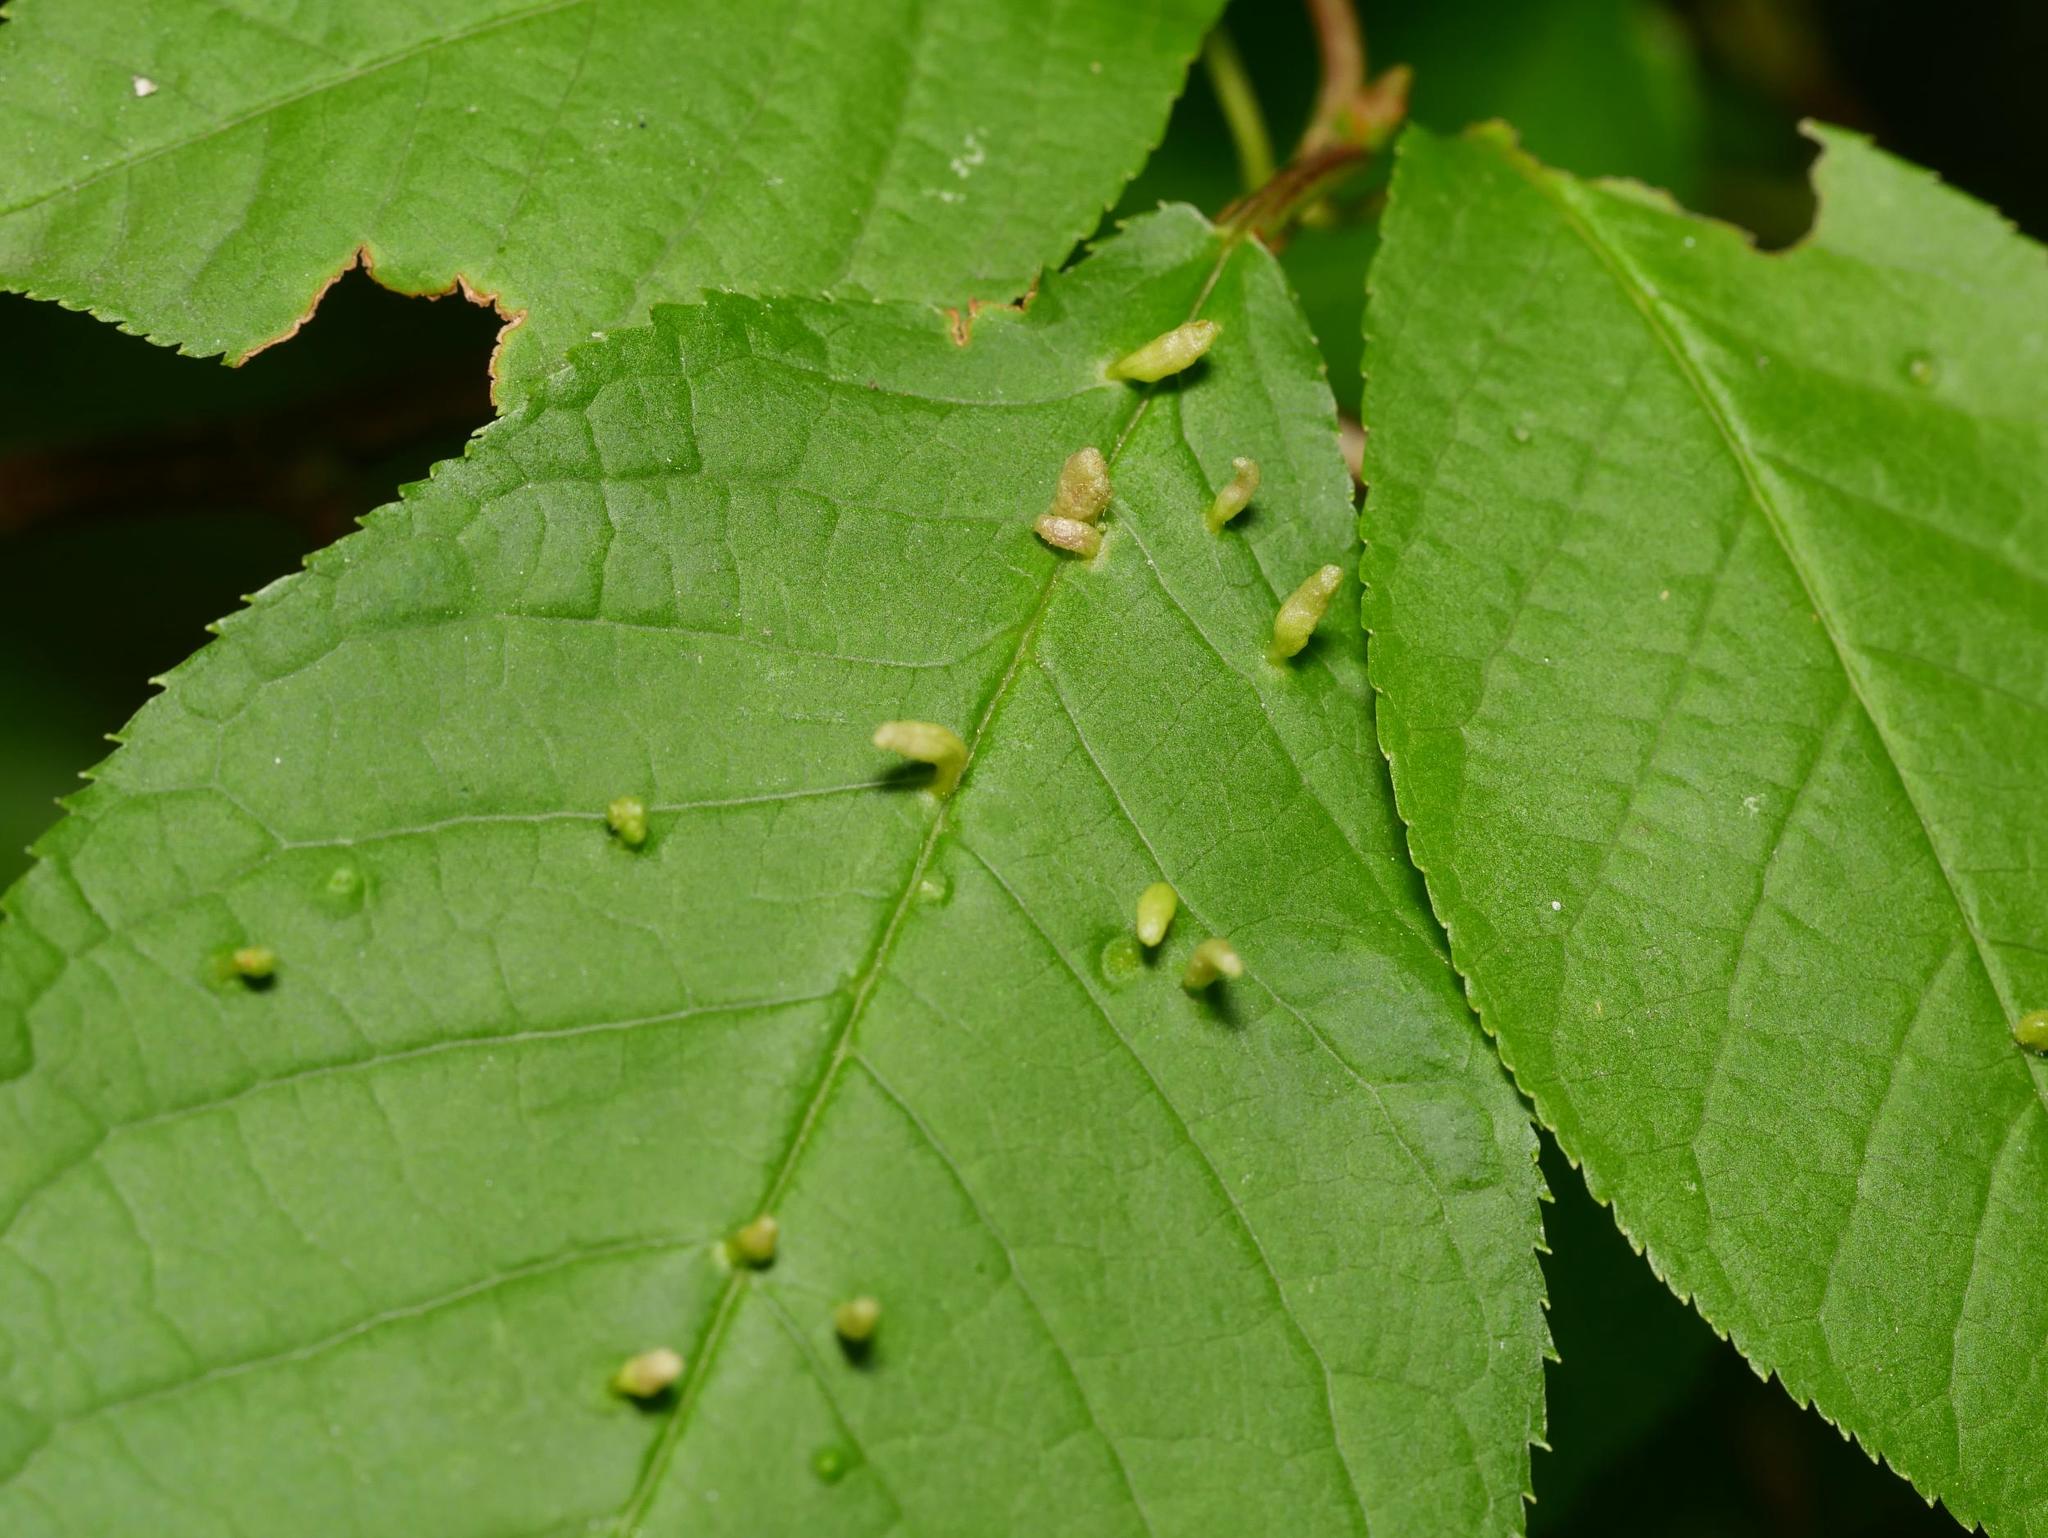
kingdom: Animalia
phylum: Arthropoda
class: Arachnida
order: Trombidiformes
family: Eriophyidae
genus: Phyllocoptes
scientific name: Phyllocoptes eupadi
